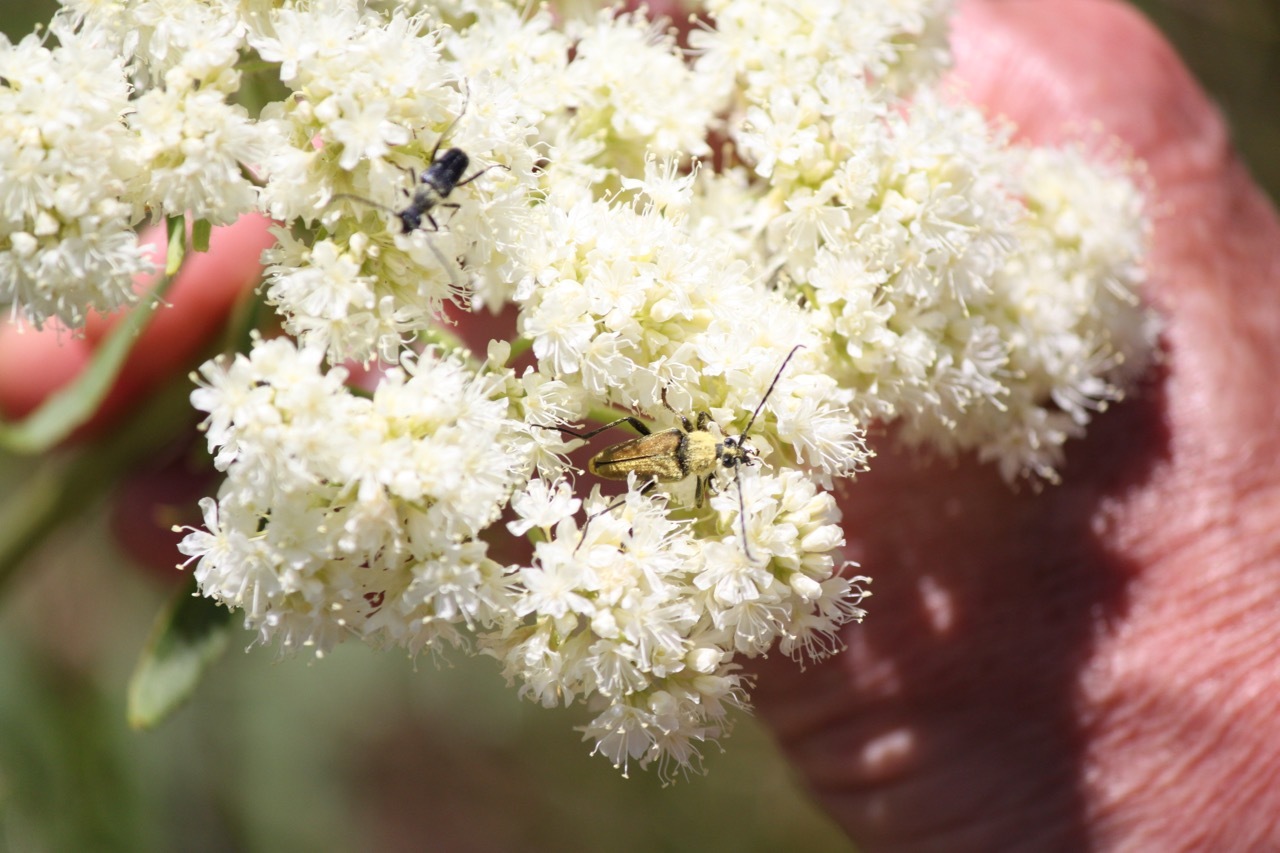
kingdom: Animalia
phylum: Arthropoda
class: Insecta
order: Coleoptera
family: Cerambycidae
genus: Cosmosalia
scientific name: Cosmosalia chrysocoma
